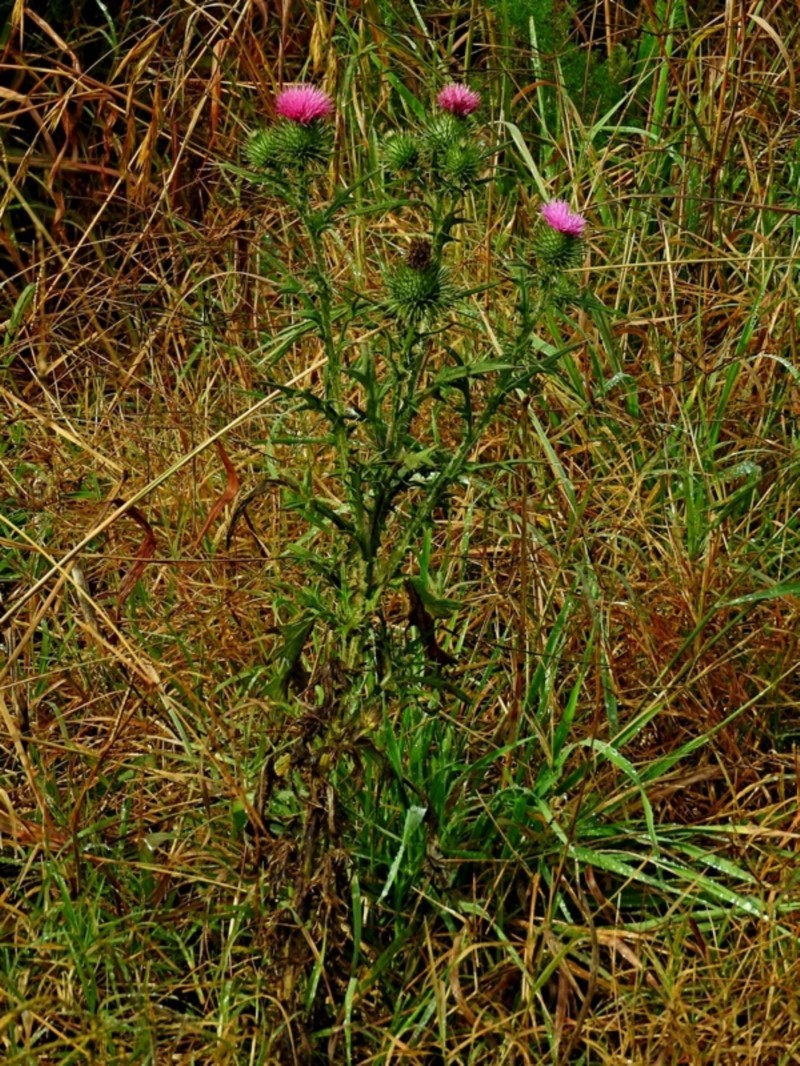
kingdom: Plantae
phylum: Tracheophyta
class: Magnoliopsida
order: Asterales
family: Asteraceae
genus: Cirsium
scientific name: Cirsium vulgare
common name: Bull thistle
